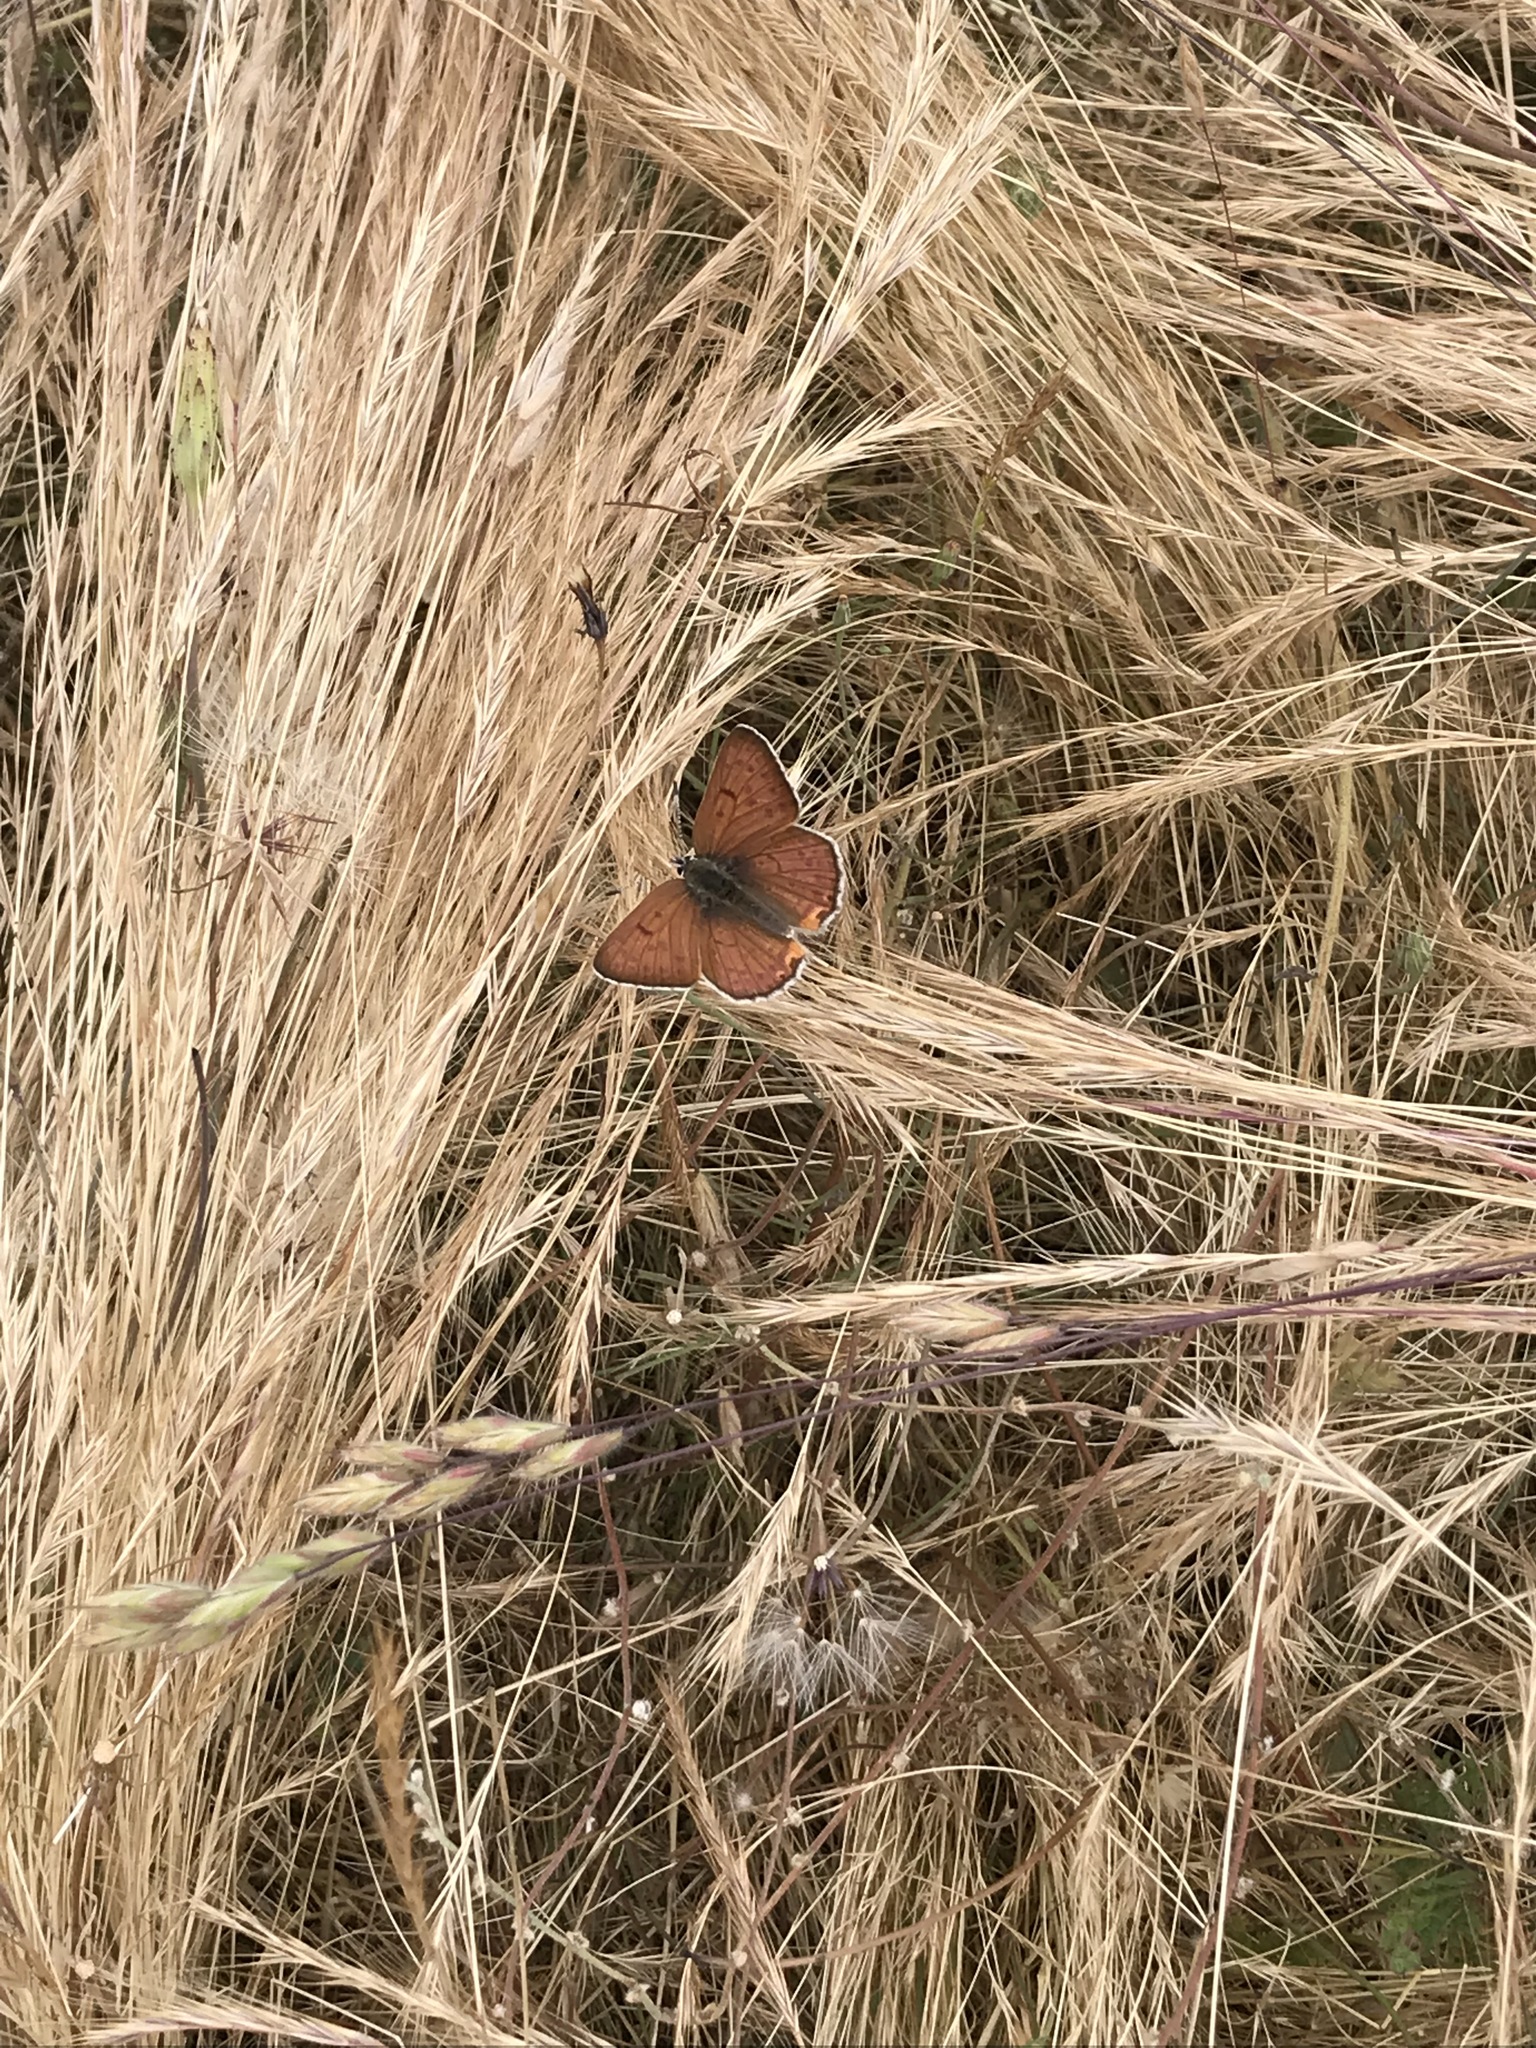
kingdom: Animalia
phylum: Arthropoda
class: Insecta
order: Lepidoptera
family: Lycaenidae
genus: Tharsalea
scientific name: Tharsalea gorgon
